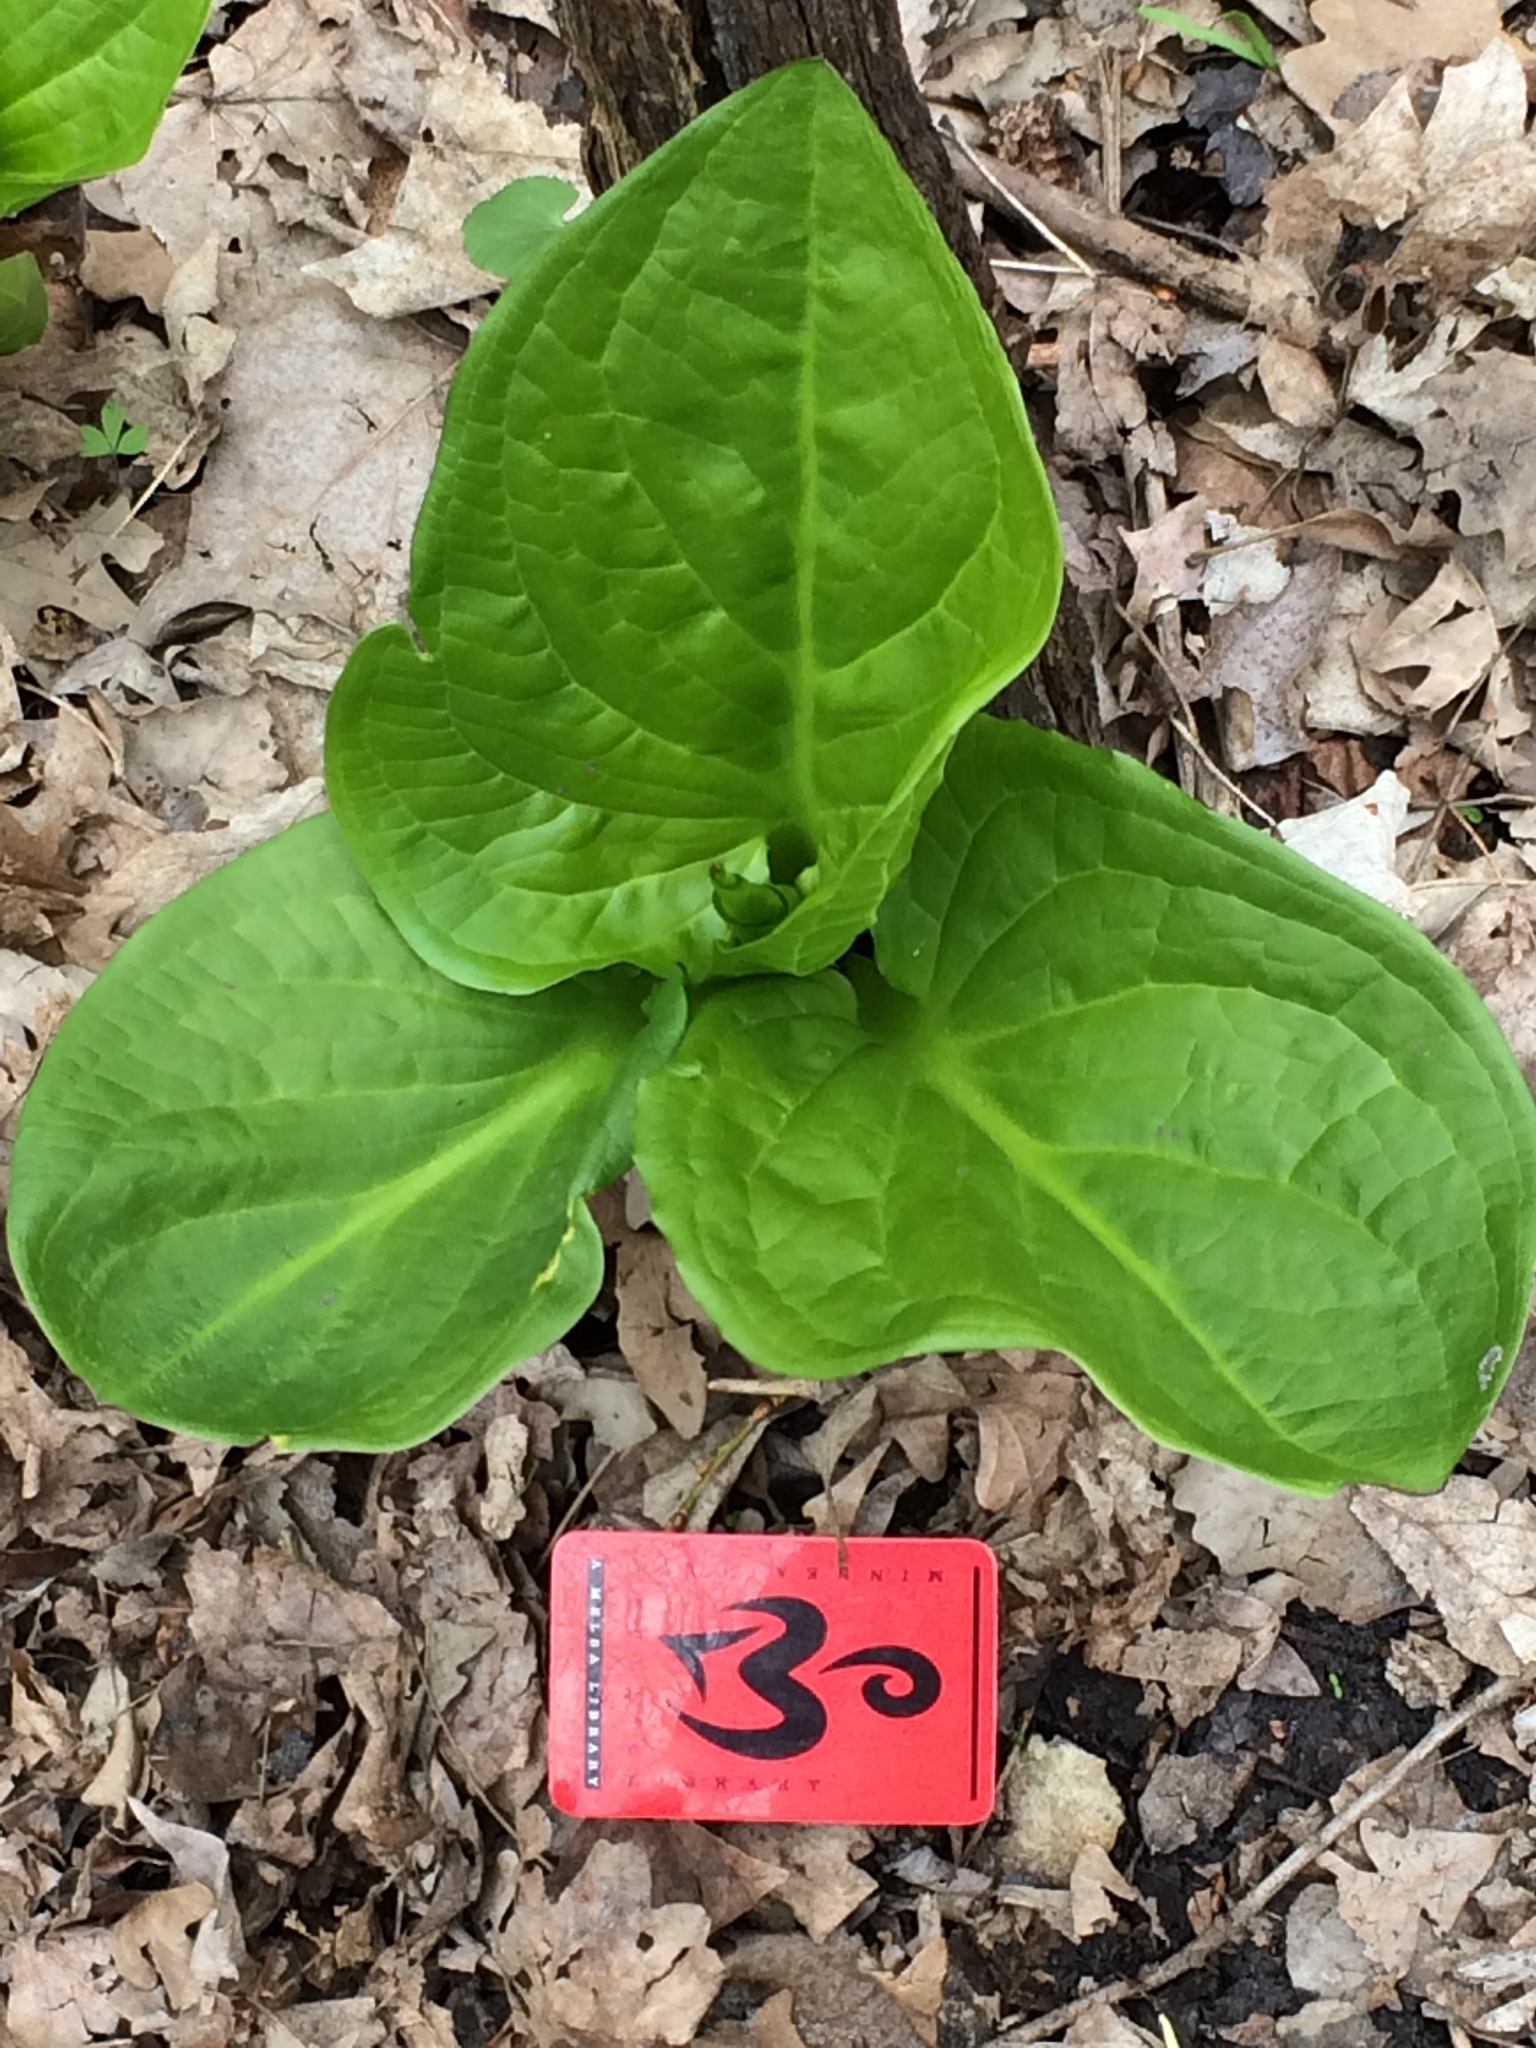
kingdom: Plantae
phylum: Tracheophyta
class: Liliopsida
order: Alismatales
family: Araceae
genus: Symplocarpus
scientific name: Symplocarpus foetidus
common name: Eastern skunk cabbage
